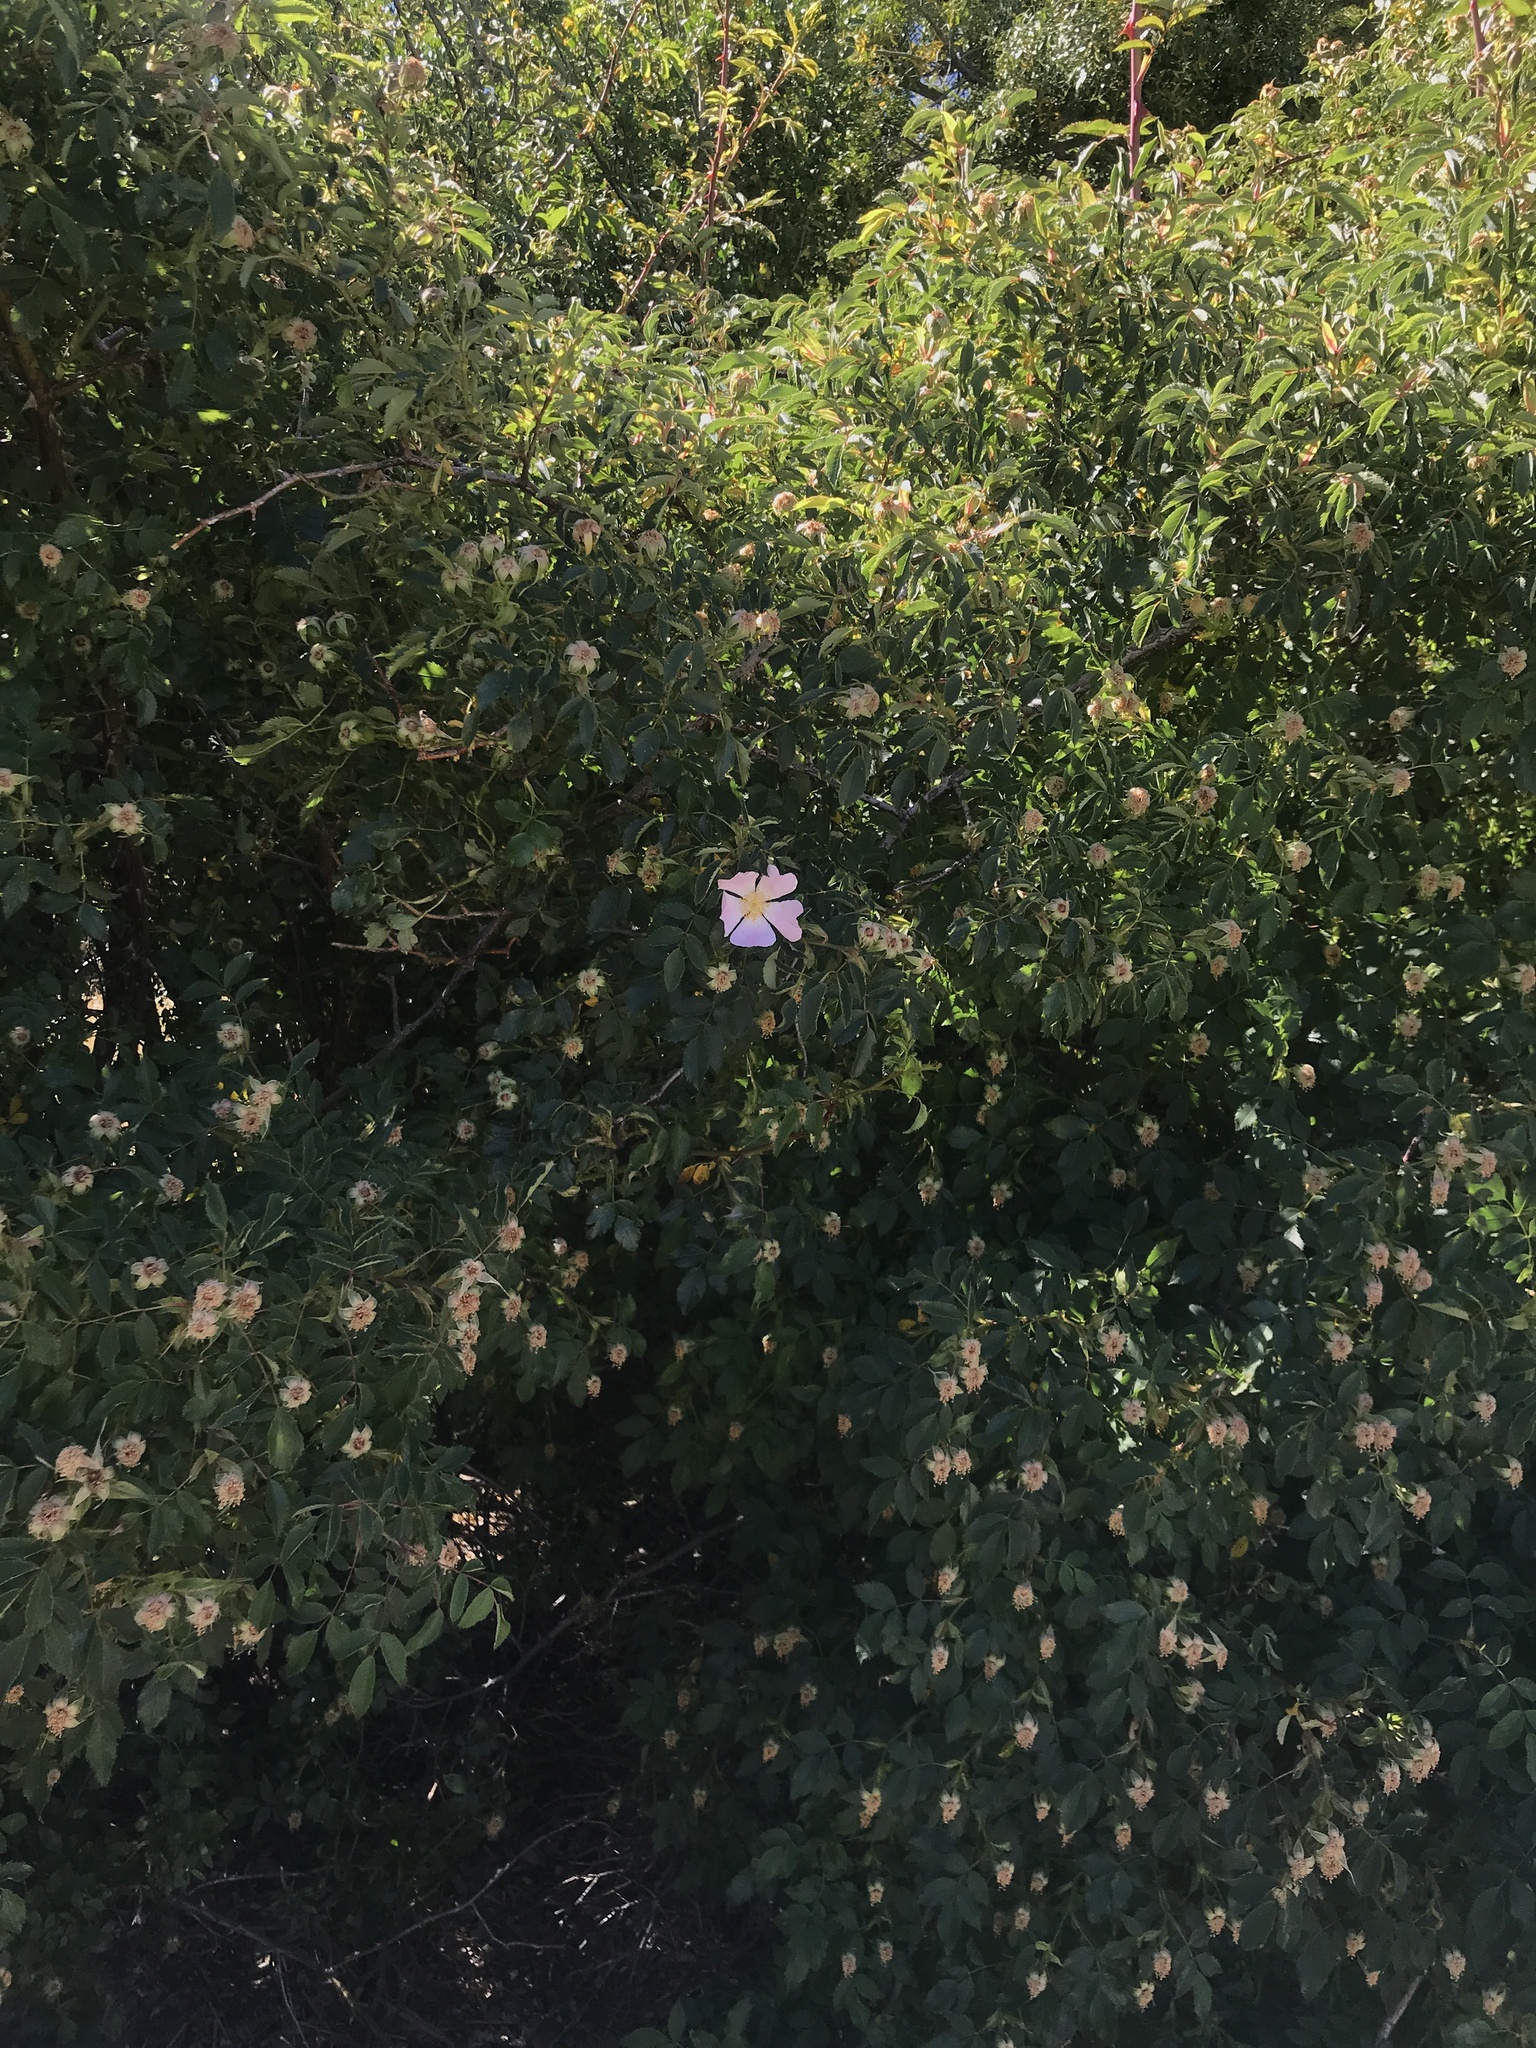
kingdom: Plantae
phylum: Tracheophyta
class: Magnoliopsida
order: Rosales
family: Rosaceae
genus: Rosa
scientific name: Rosa rubiginosa
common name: Sweet-briar
